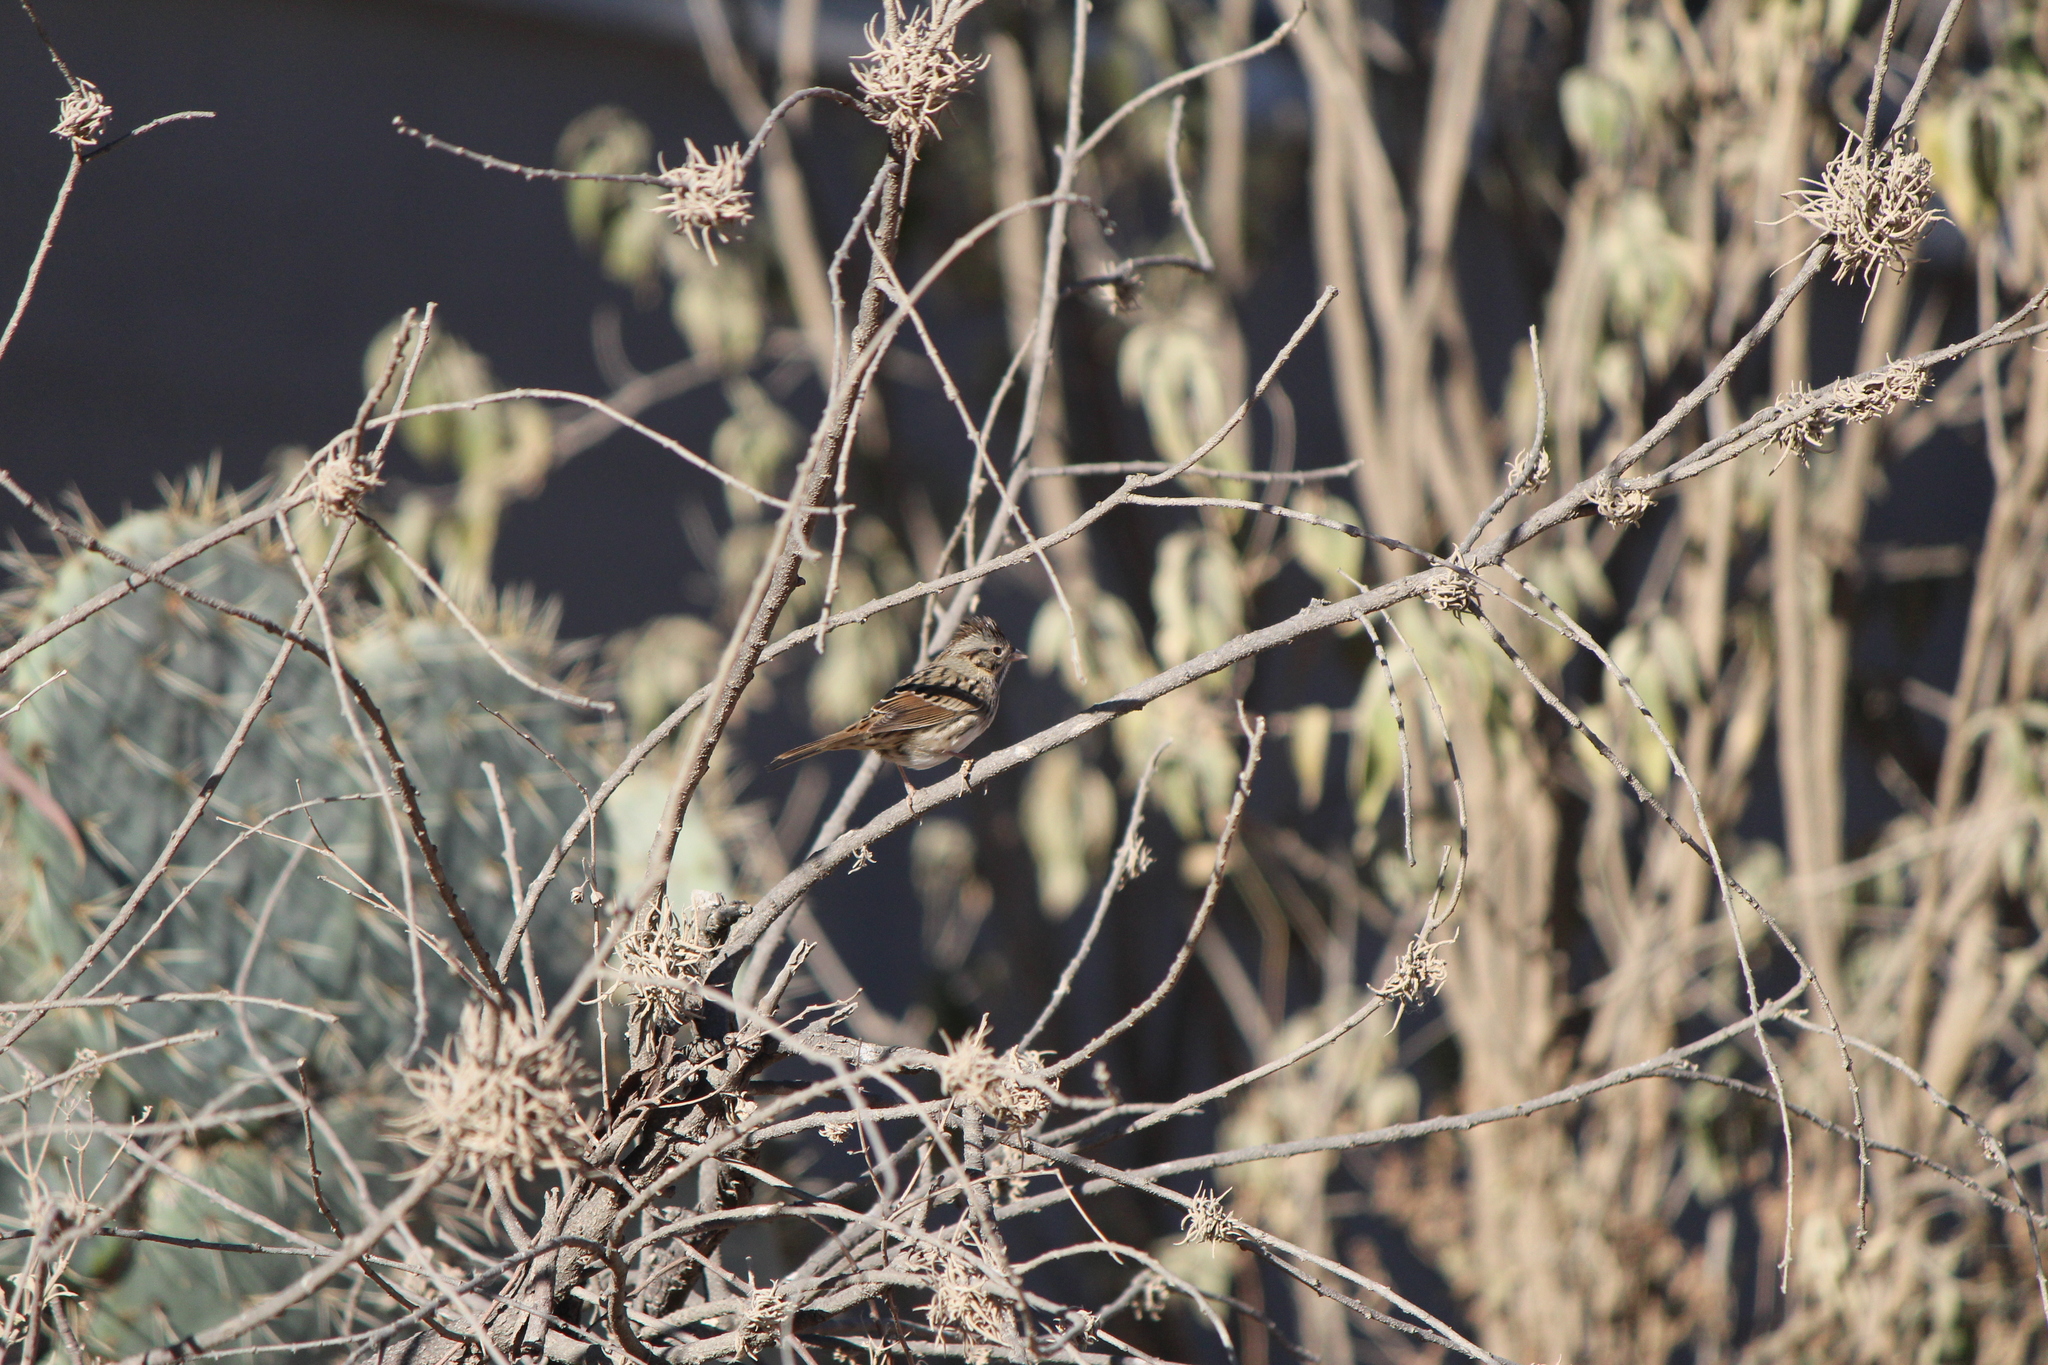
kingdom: Animalia
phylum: Chordata
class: Aves
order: Passeriformes
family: Passerellidae
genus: Melospiza
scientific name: Melospiza lincolnii
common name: Lincoln's sparrow
